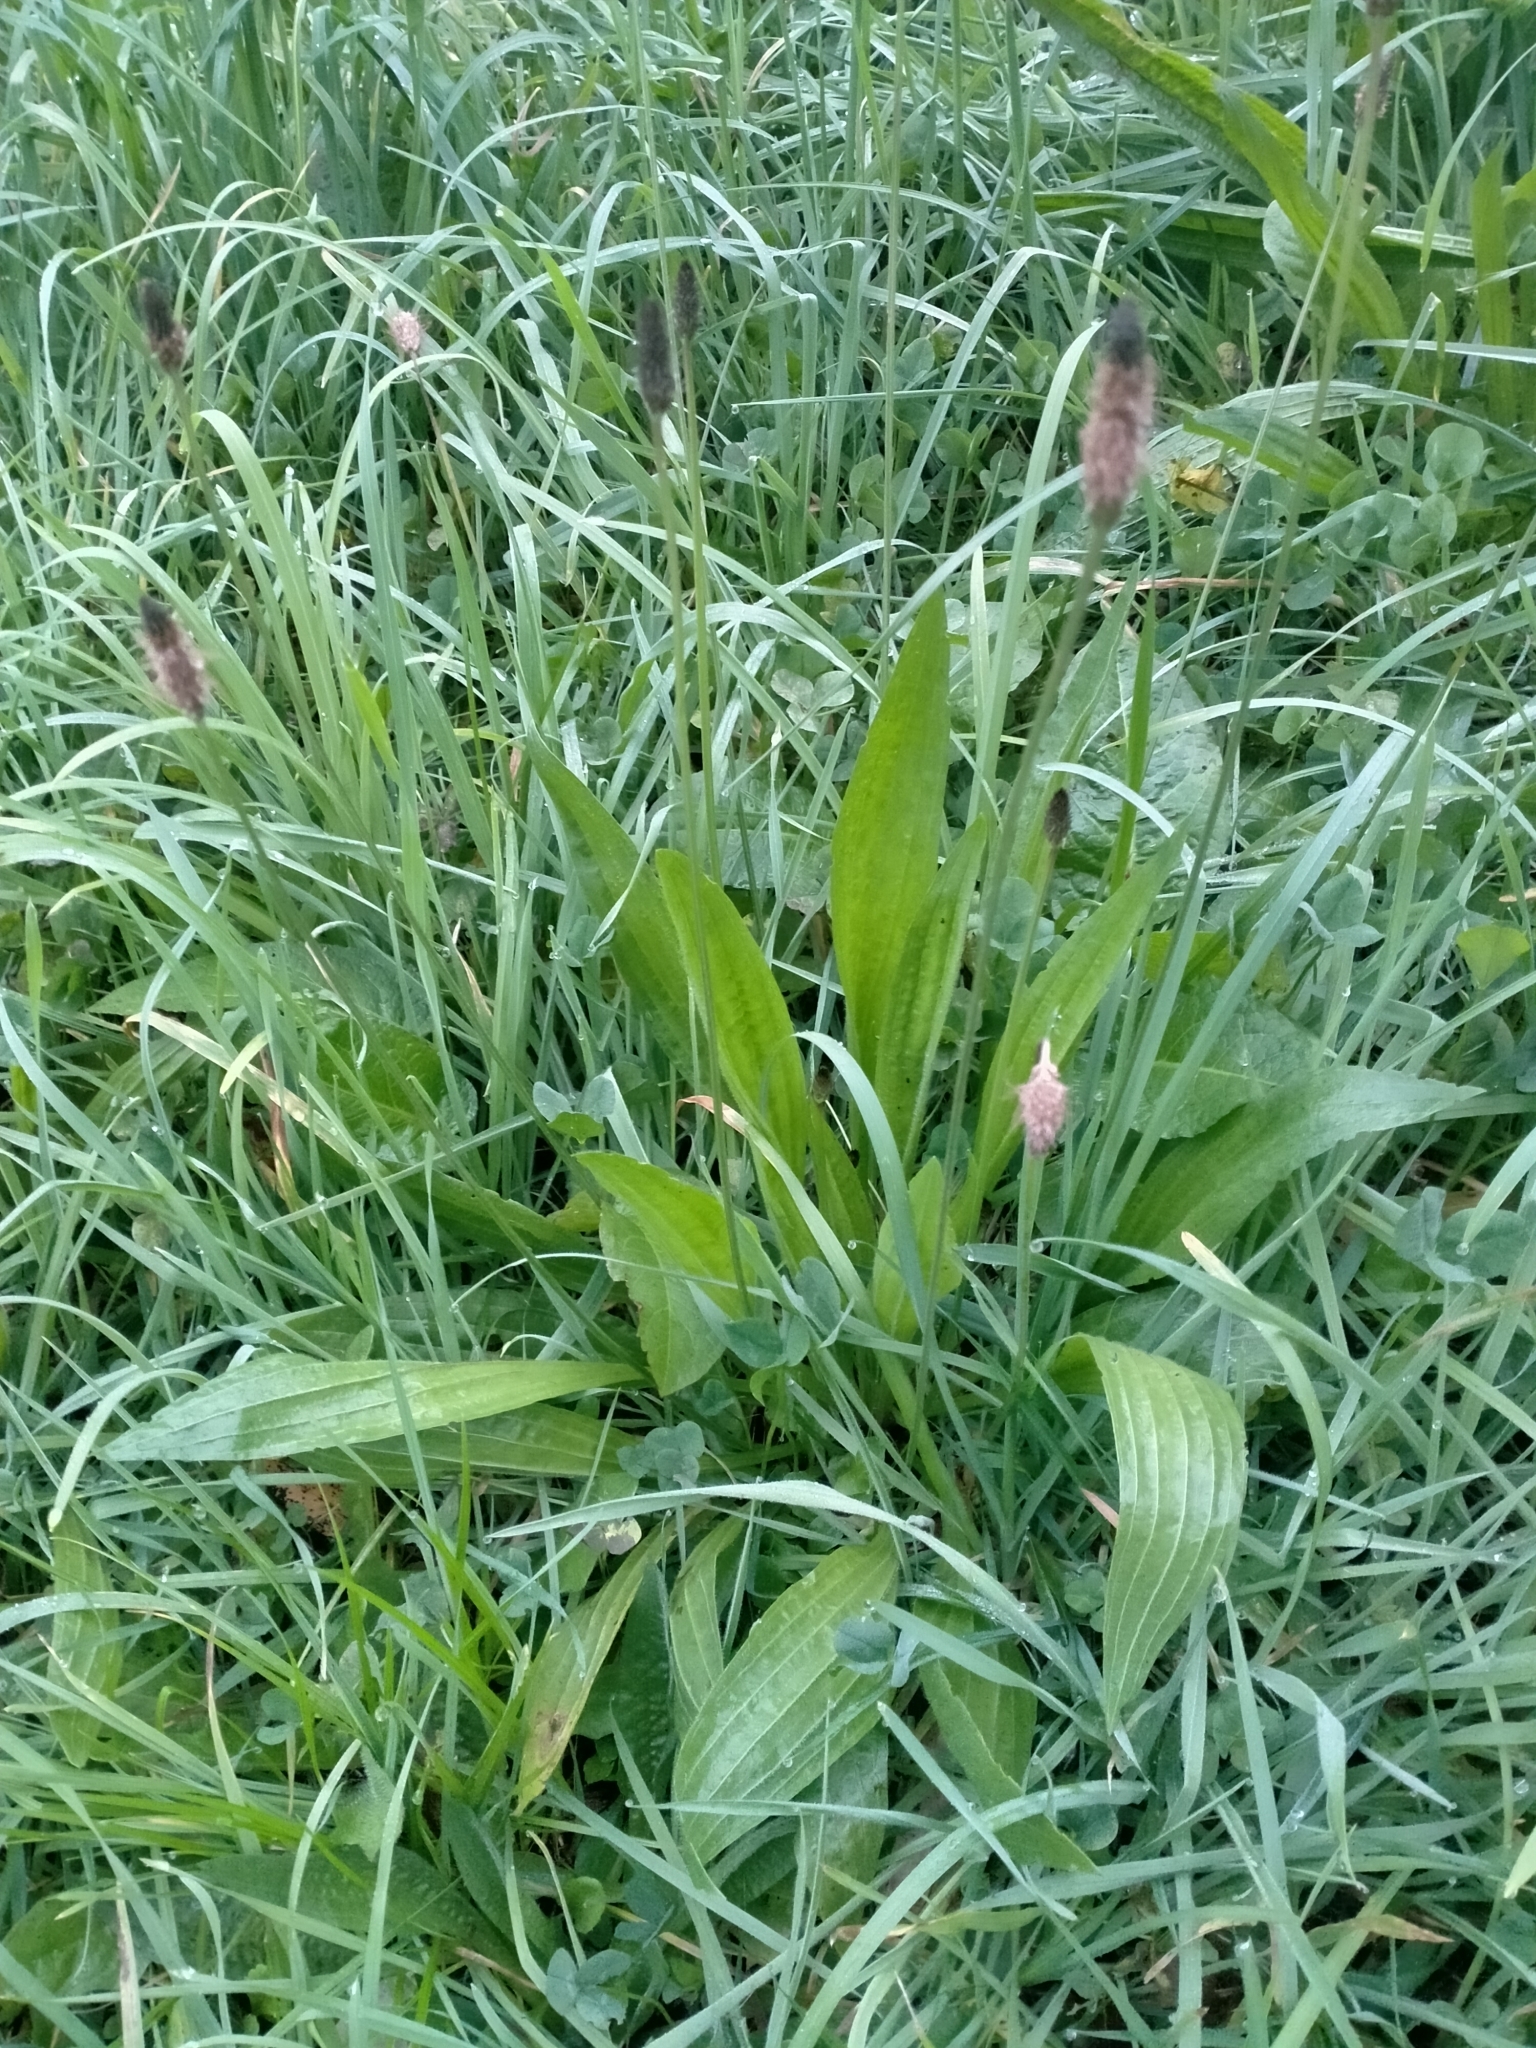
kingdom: Plantae
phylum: Tracheophyta
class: Magnoliopsida
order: Lamiales
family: Plantaginaceae
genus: Plantago
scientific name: Plantago lanceolata
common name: Ribwort plantain
